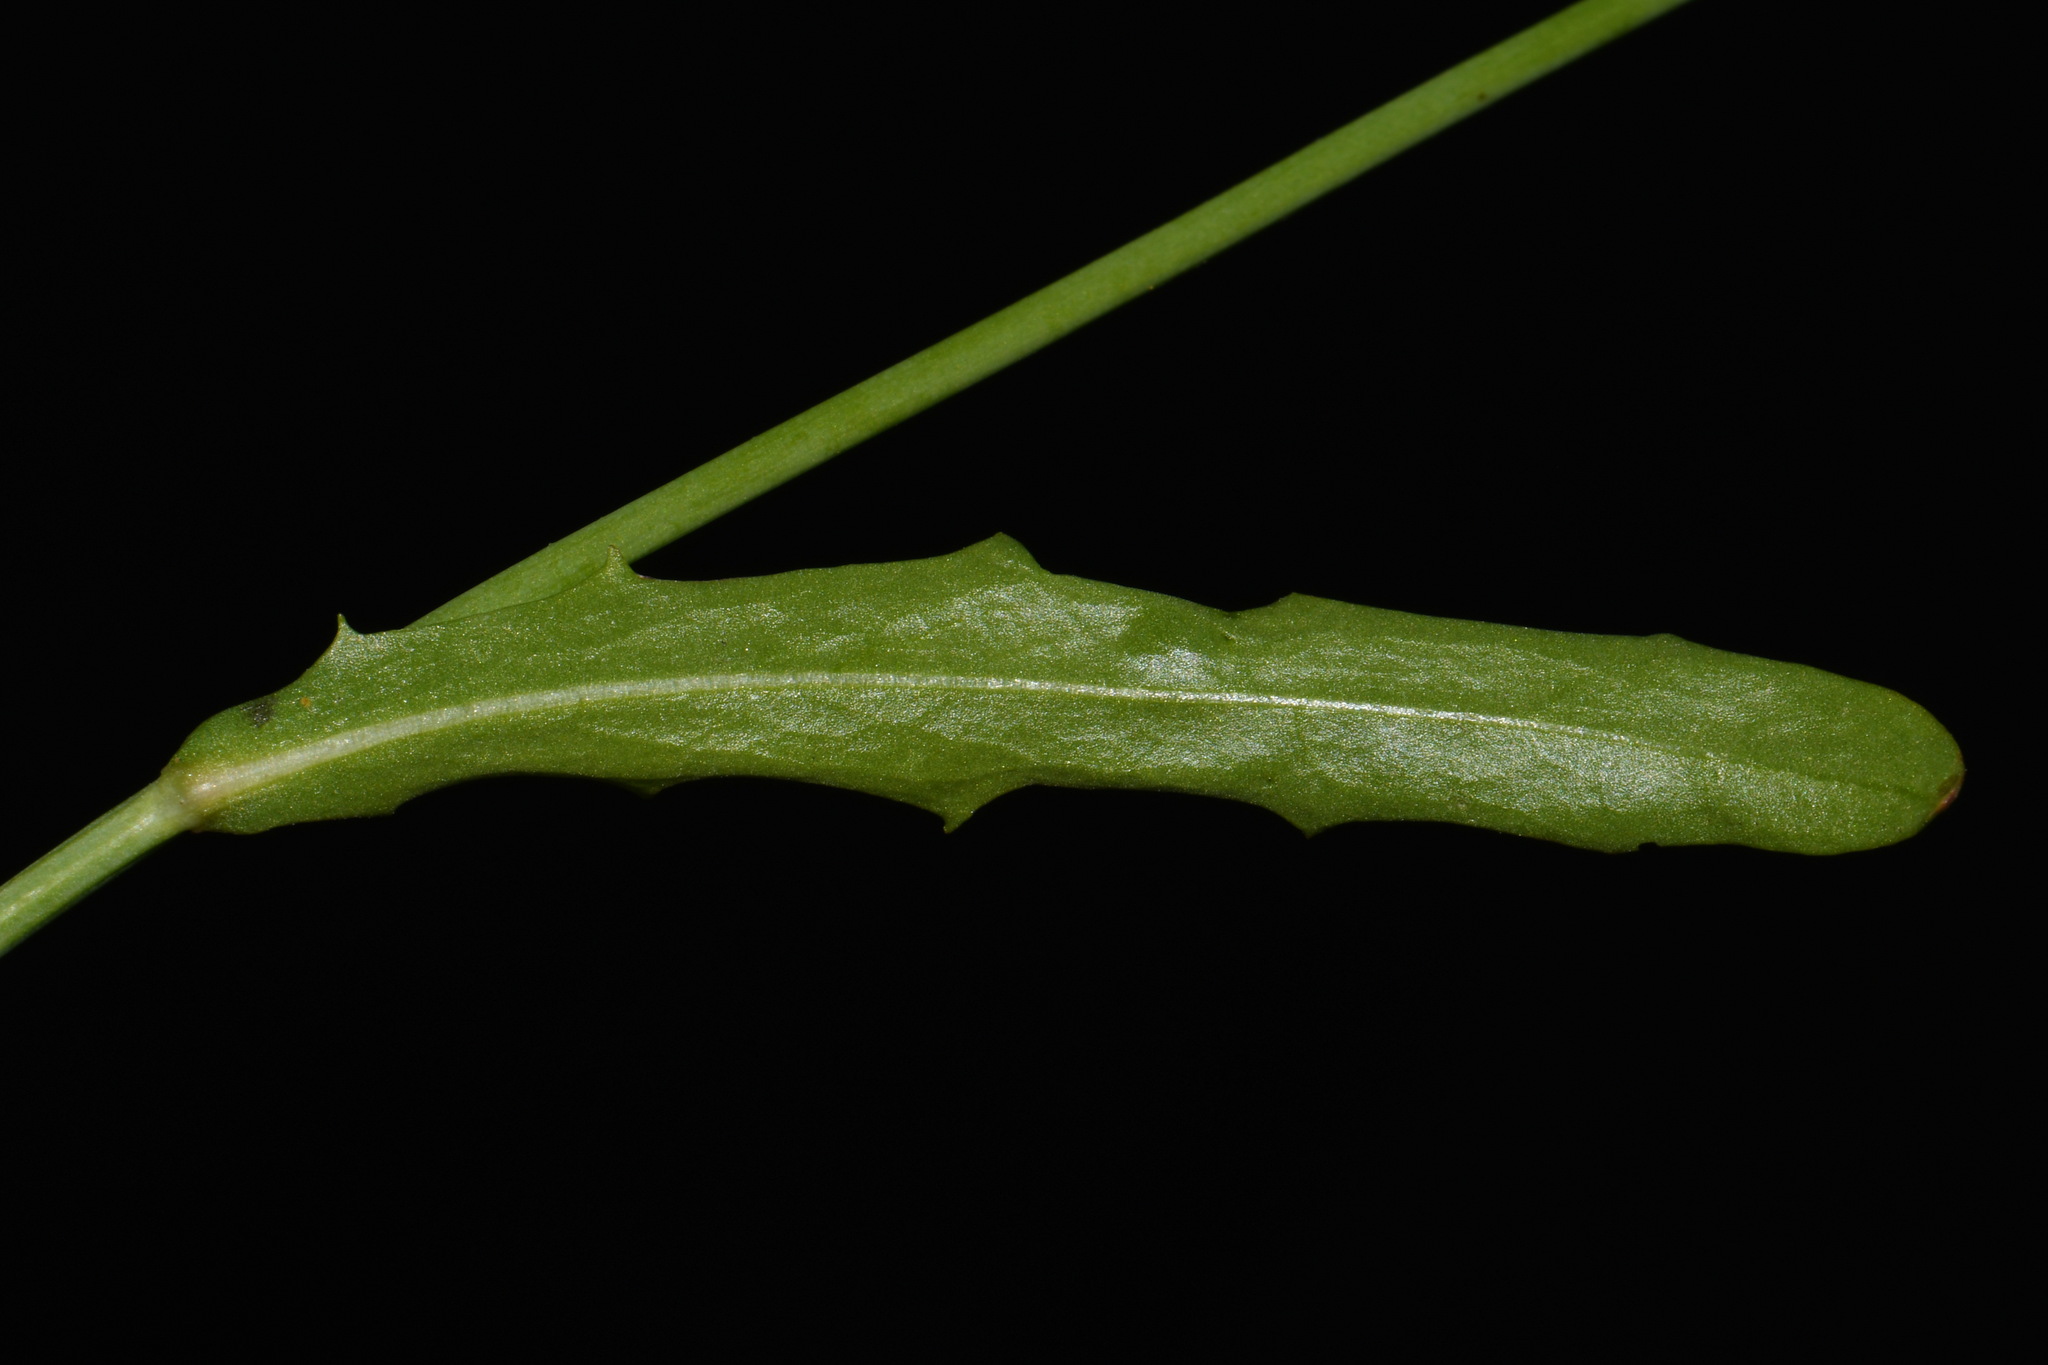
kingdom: Plantae
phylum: Tracheophyta
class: Magnoliopsida
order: Asterales
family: Asteraceae
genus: Hypochaeris
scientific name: Hypochaeris glabra
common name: Smooth catsear
